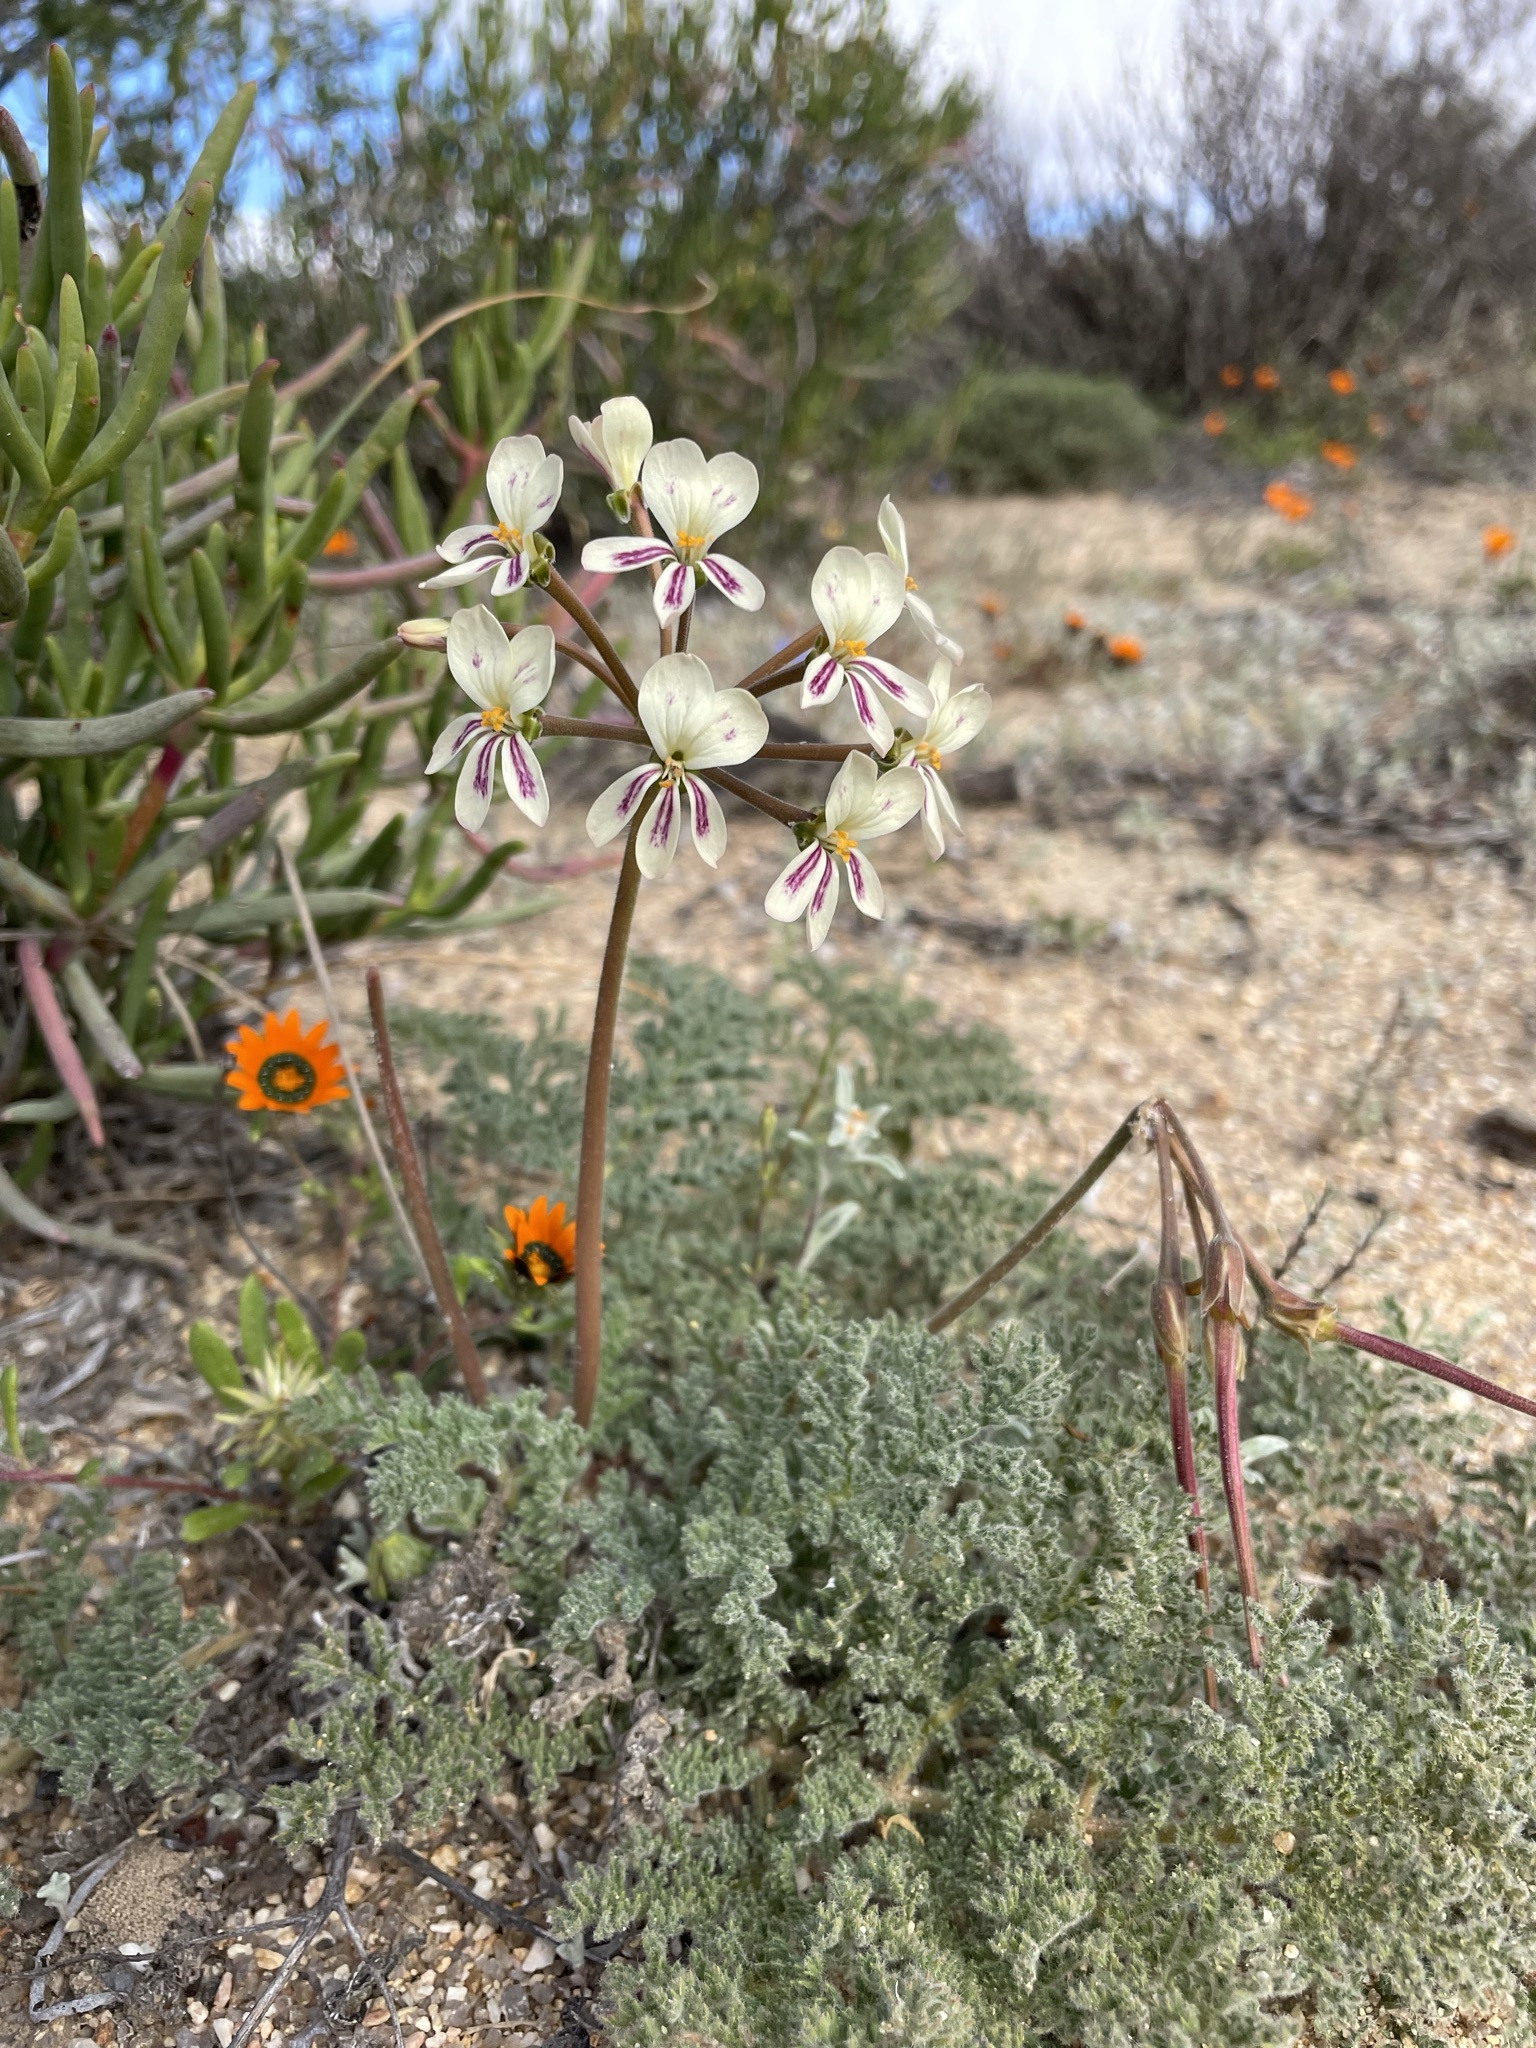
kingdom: Plantae
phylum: Tracheophyta
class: Magnoliopsida
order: Geraniales
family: Geraniaceae
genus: Pelargonium
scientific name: Pelargonium triste
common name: Night-scent pelargonium
